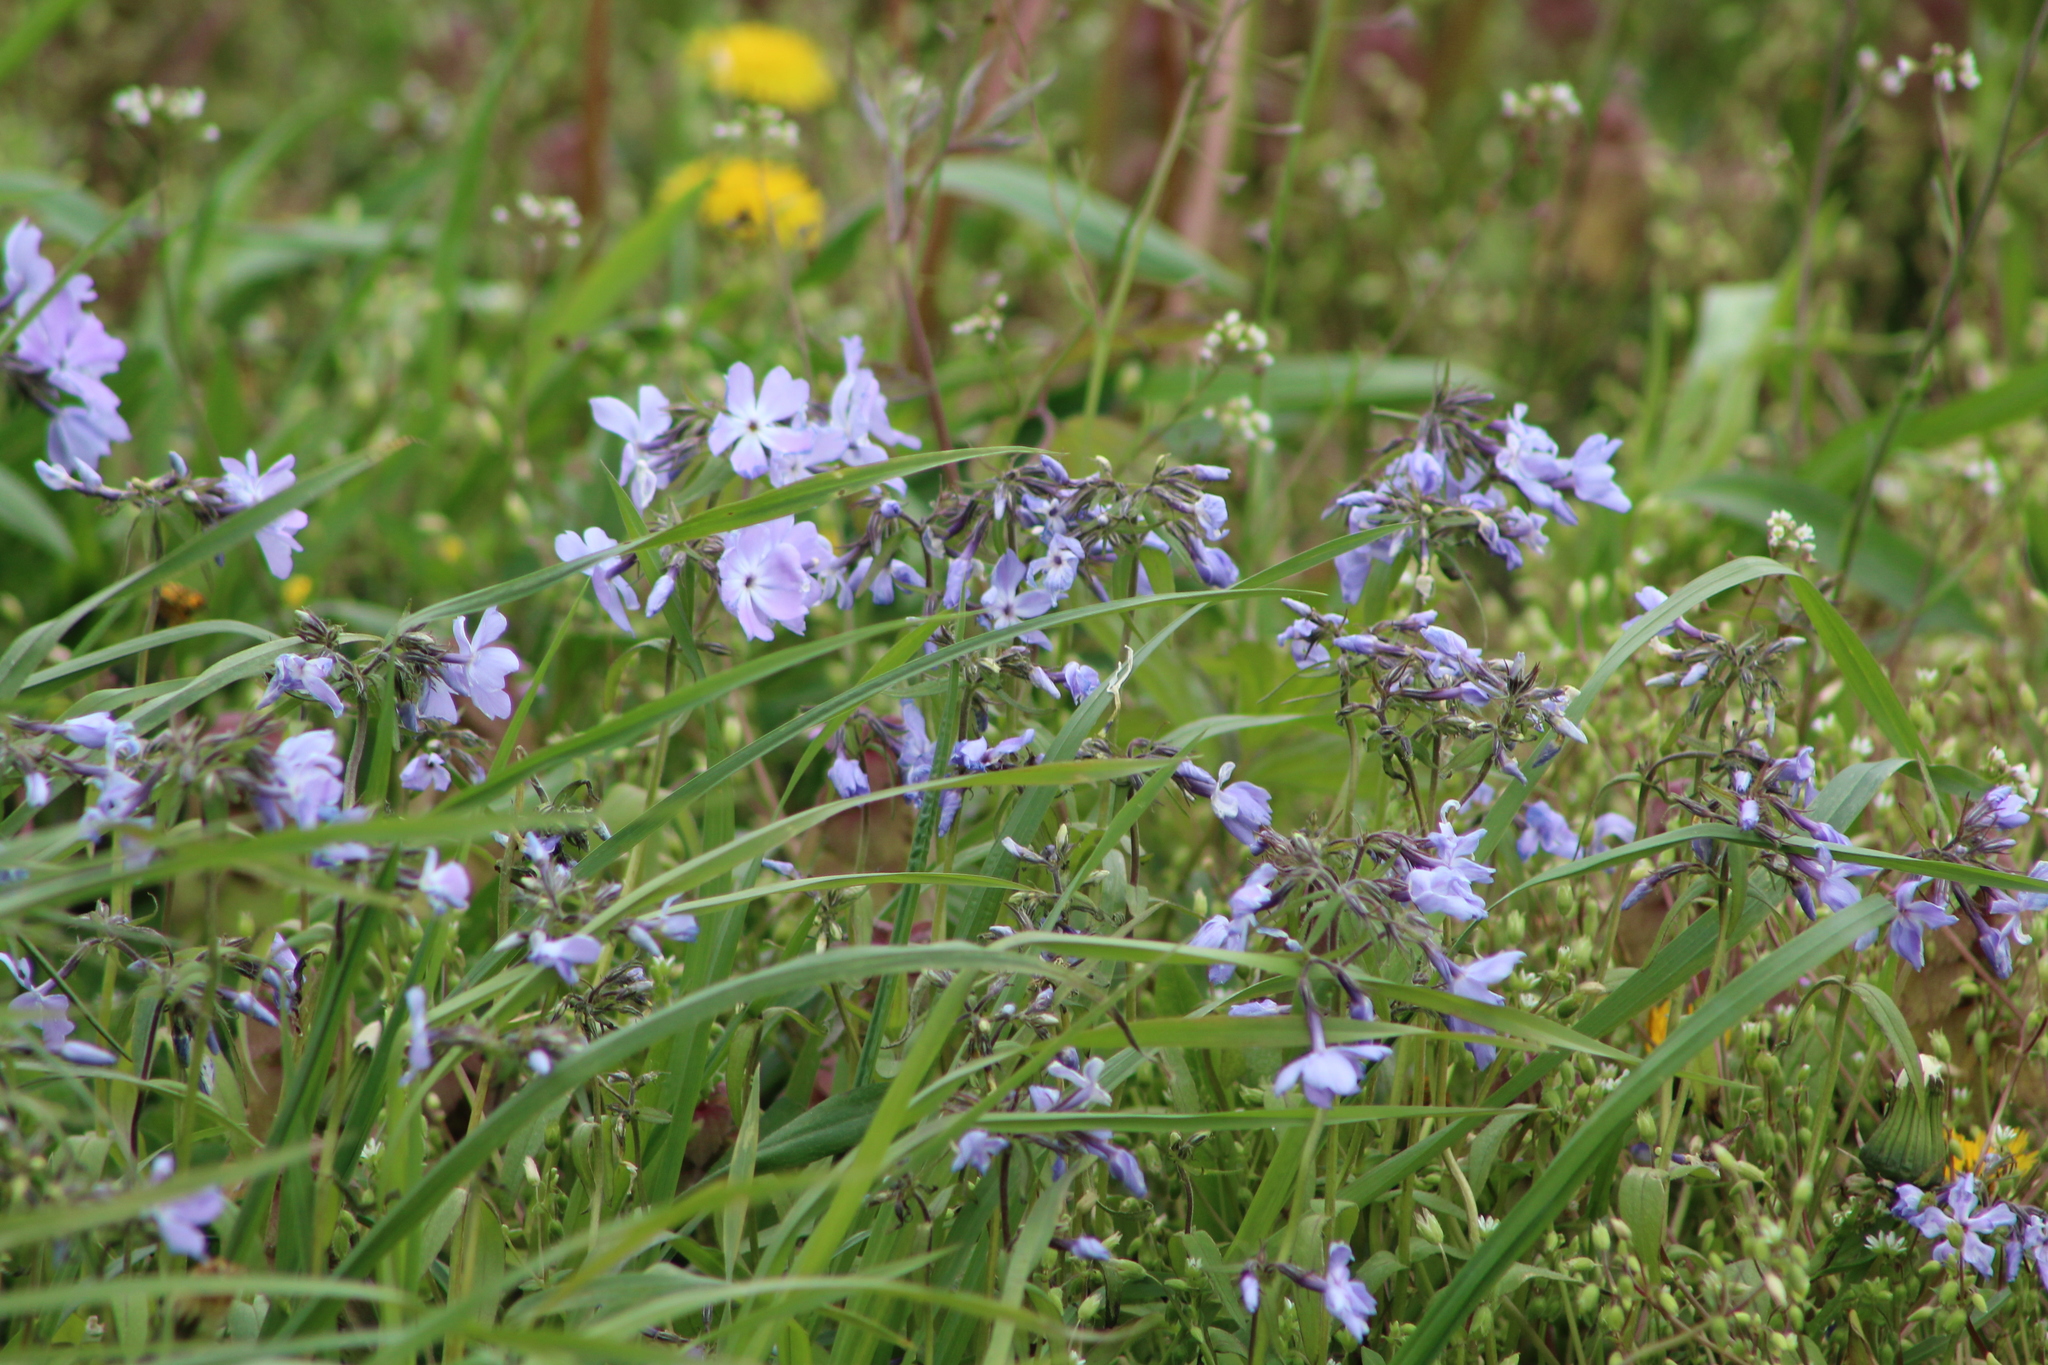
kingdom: Plantae
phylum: Tracheophyta
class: Magnoliopsida
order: Ericales
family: Polemoniaceae
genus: Phlox
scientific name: Phlox divaricata
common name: Blue phlox
